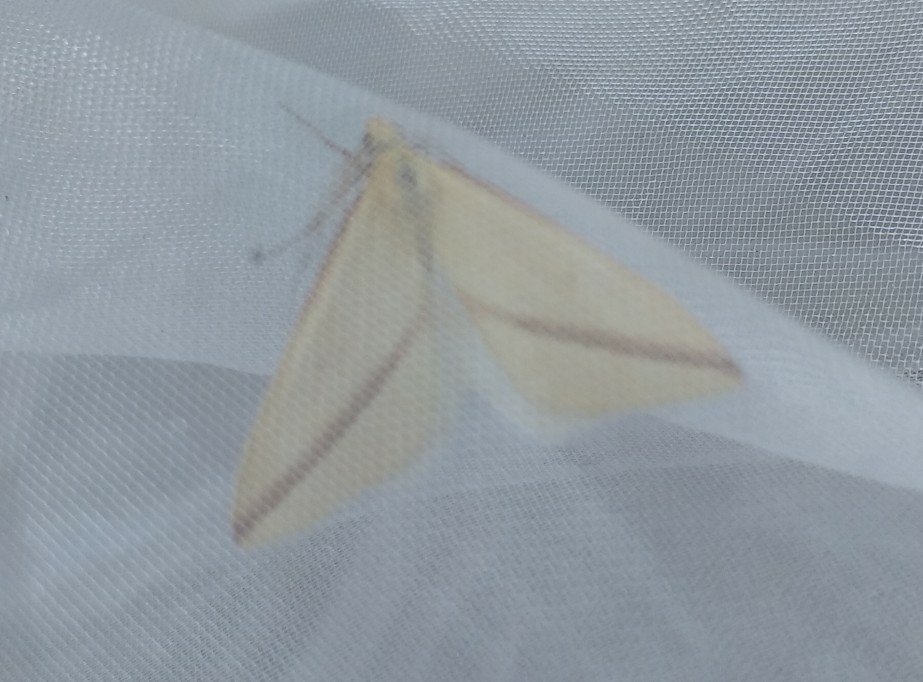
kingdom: Animalia
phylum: Arthropoda
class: Insecta
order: Lepidoptera
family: Geometridae
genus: Rhodometra
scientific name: Rhodometra sacraria
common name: Vestal
